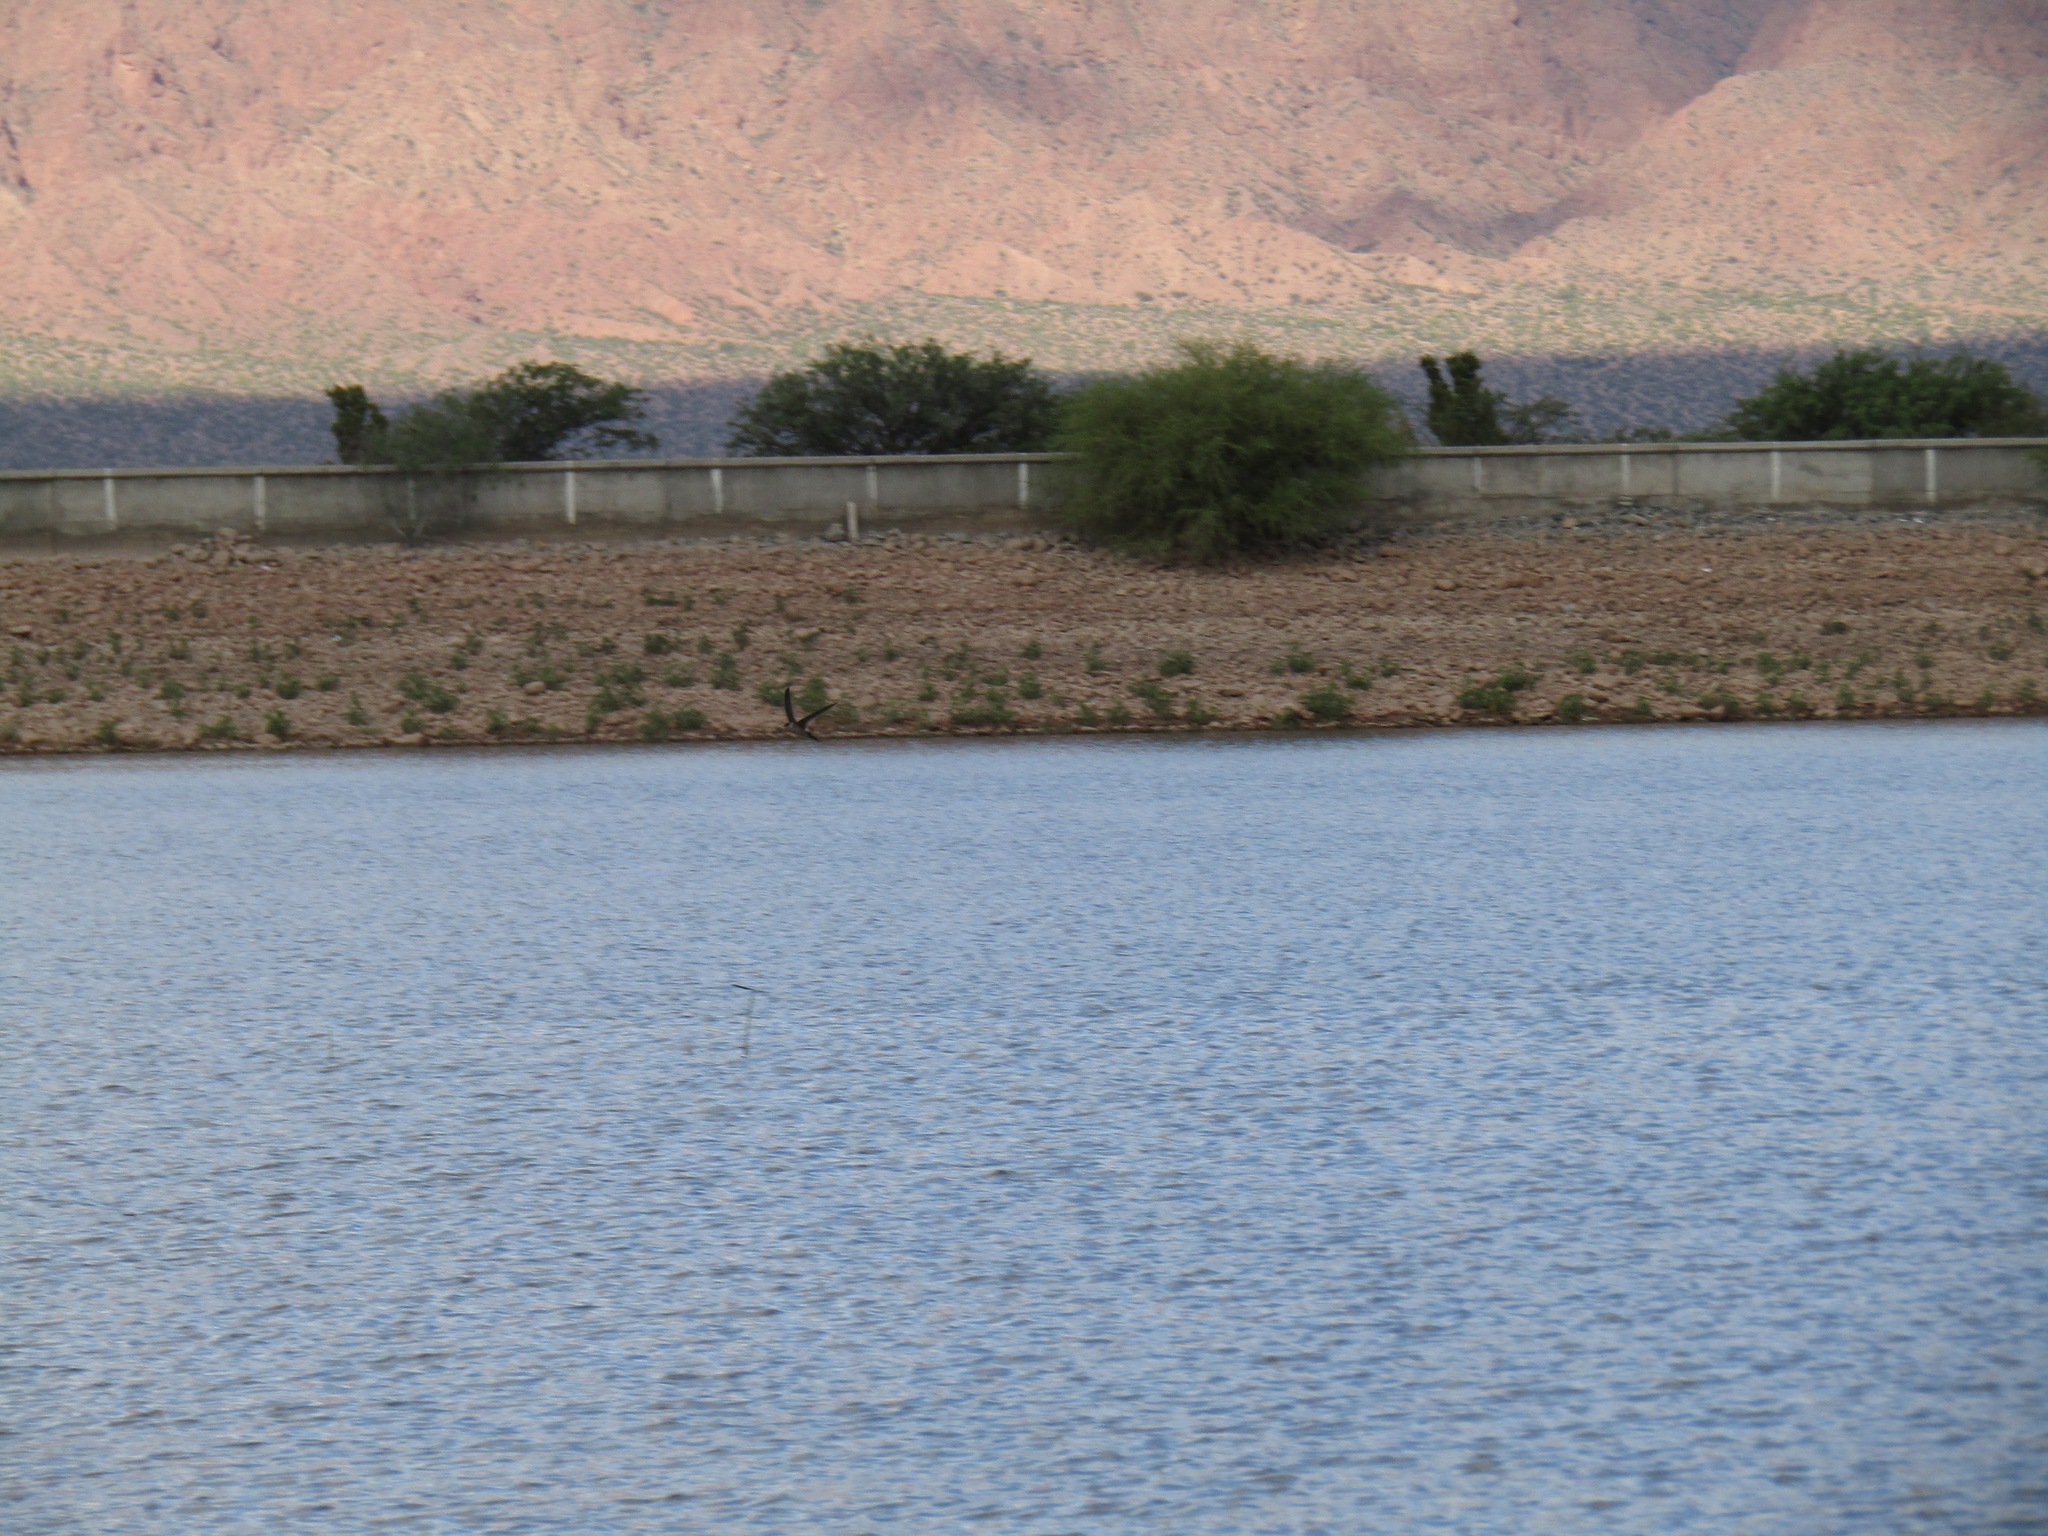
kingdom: Animalia
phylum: Chordata
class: Aves
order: Apodiformes
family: Apodidae
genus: Aeronautes
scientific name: Aeronautes andecolus
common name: Andean swift
